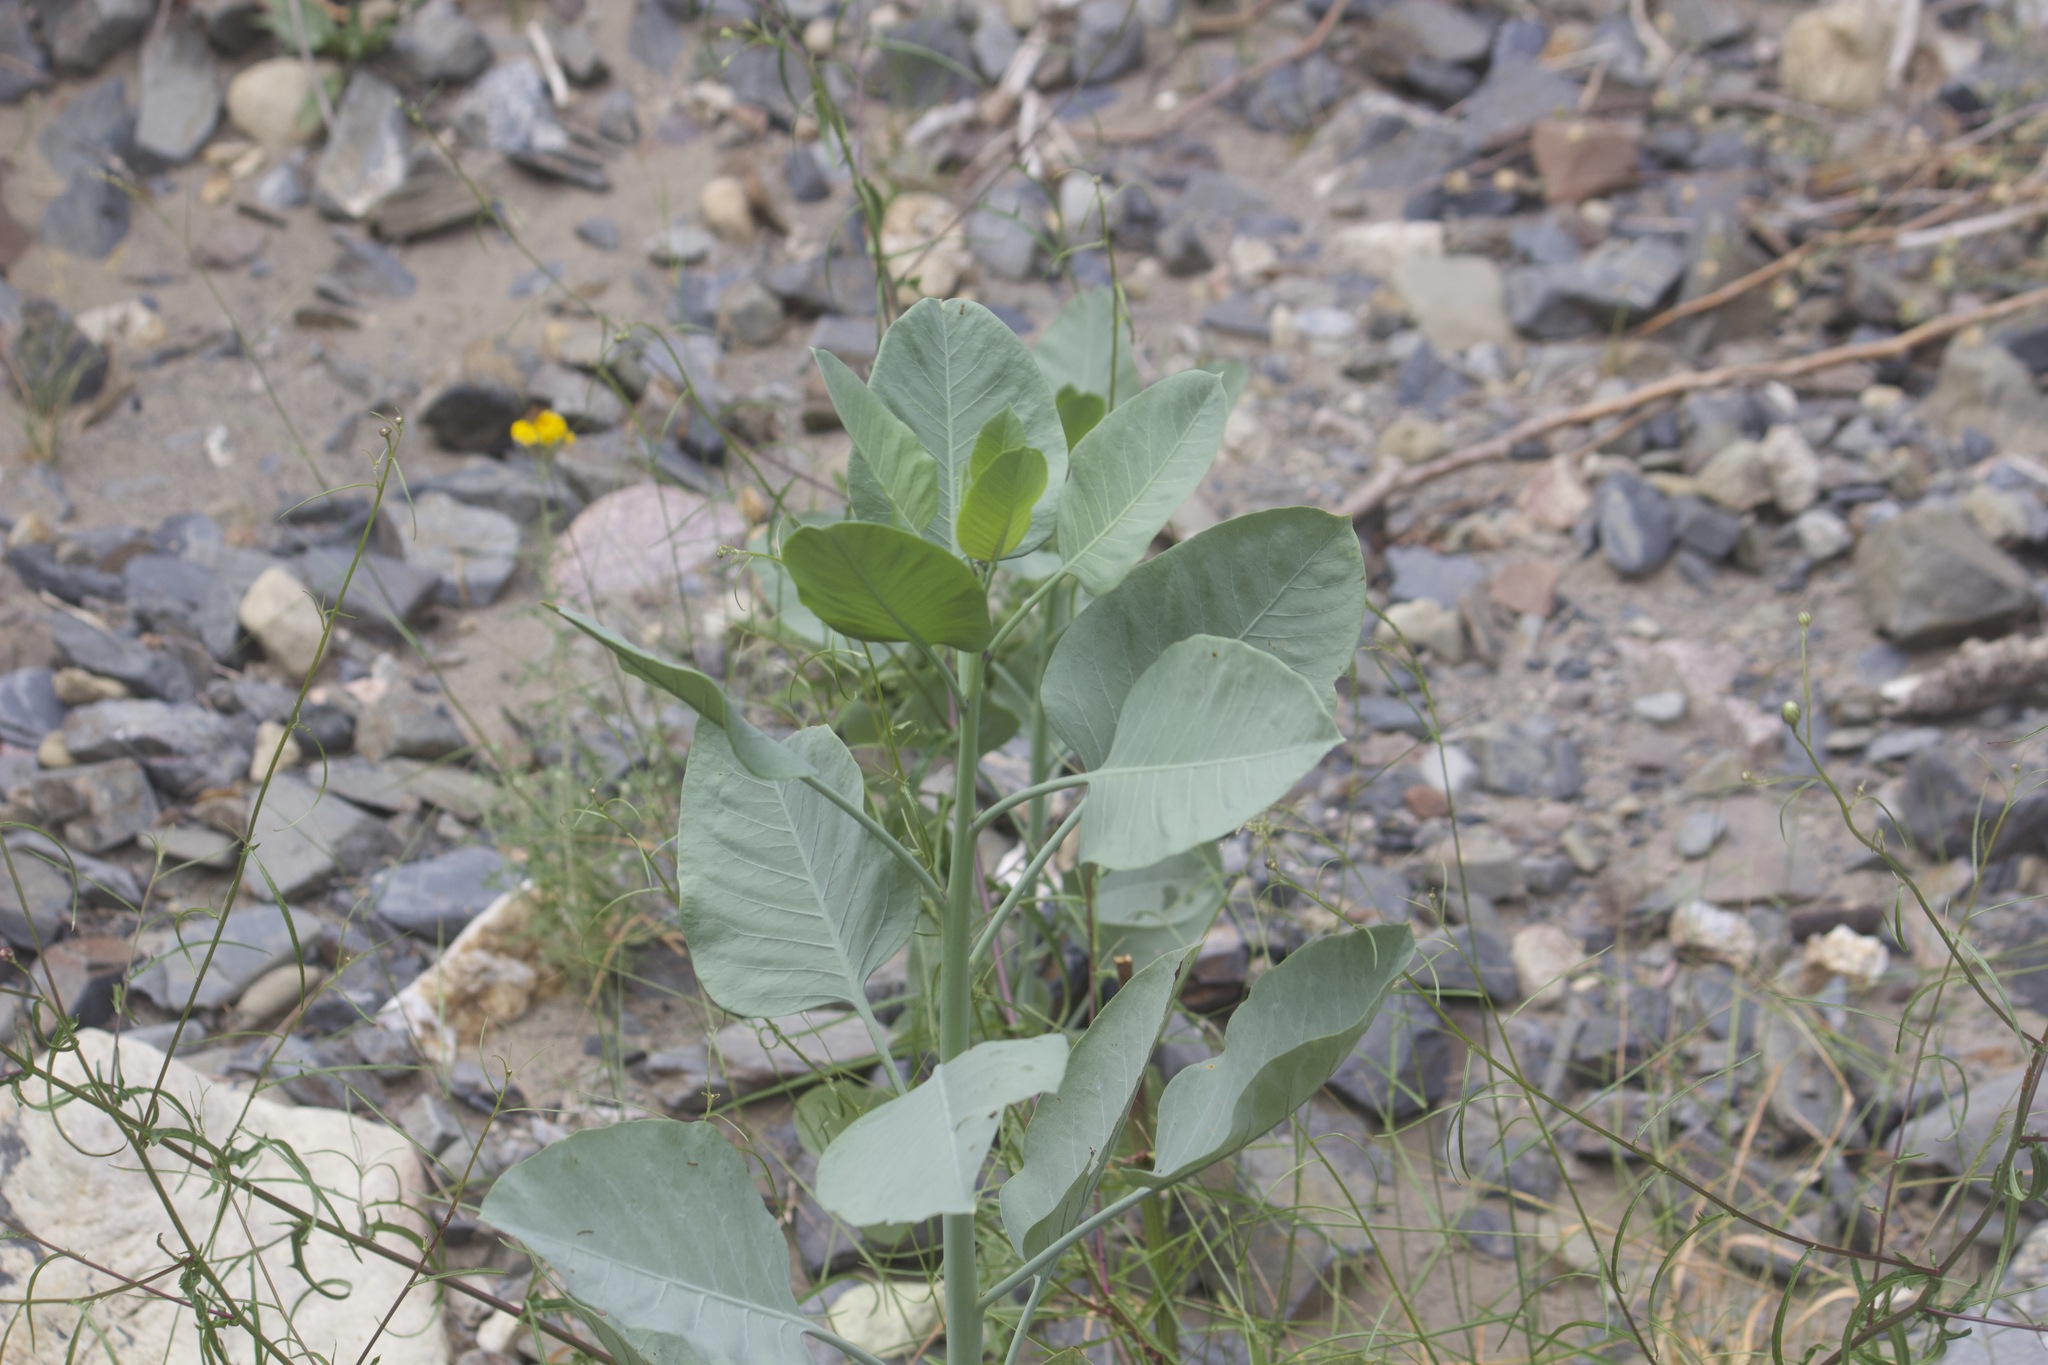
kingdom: Plantae
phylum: Tracheophyta
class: Magnoliopsida
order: Solanales
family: Solanaceae
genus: Nicotiana
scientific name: Nicotiana glauca
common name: Tree tobacco
